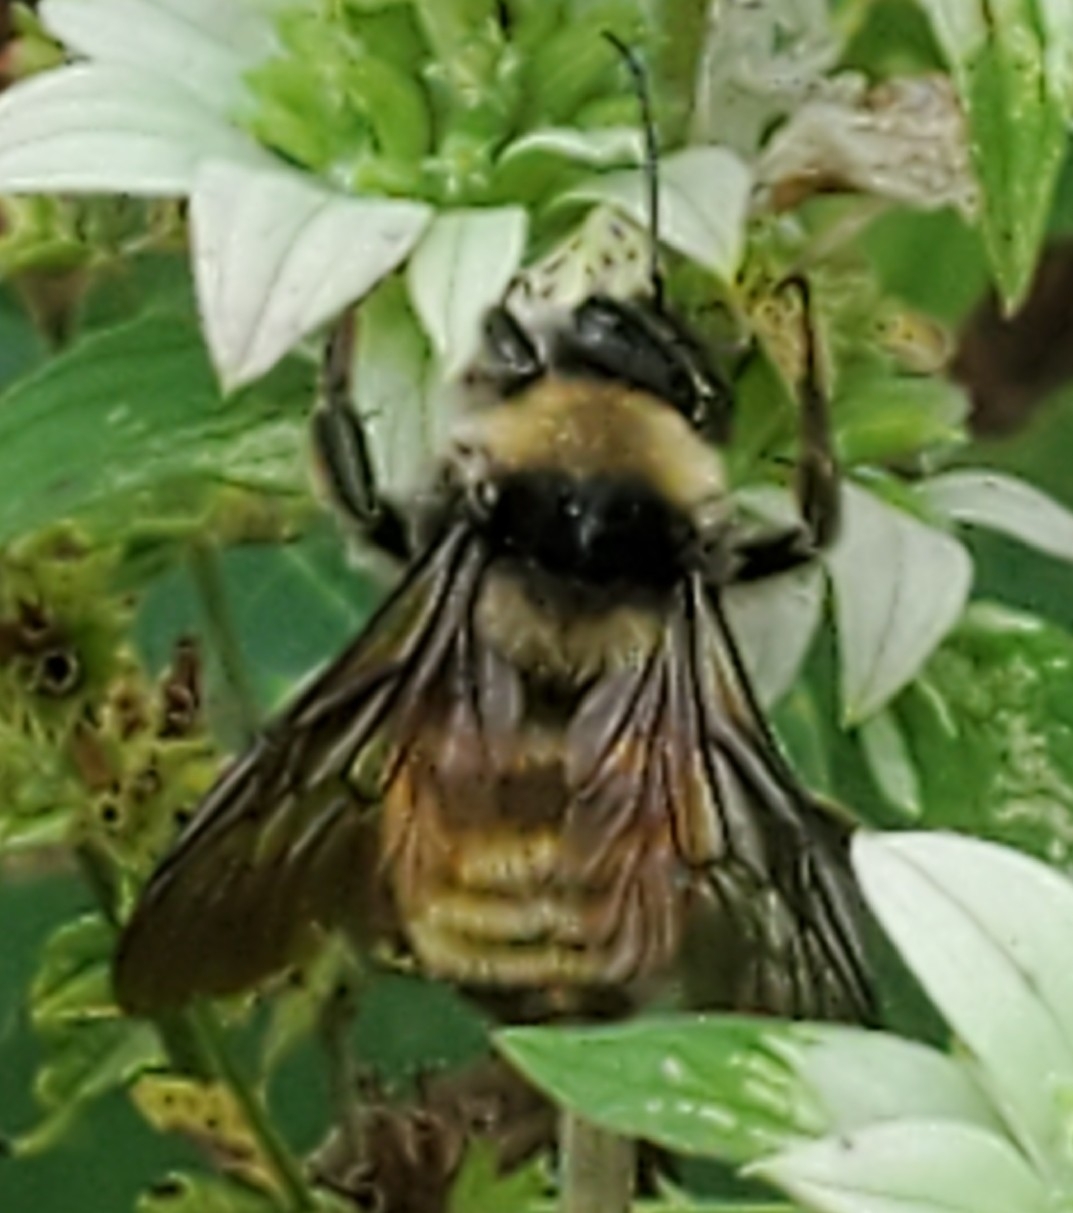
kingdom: Animalia
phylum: Arthropoda
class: Insecta
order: Hymenoptera
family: Apidae
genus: Bombus
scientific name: Bombus pensylvanicus
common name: Bumble bee
